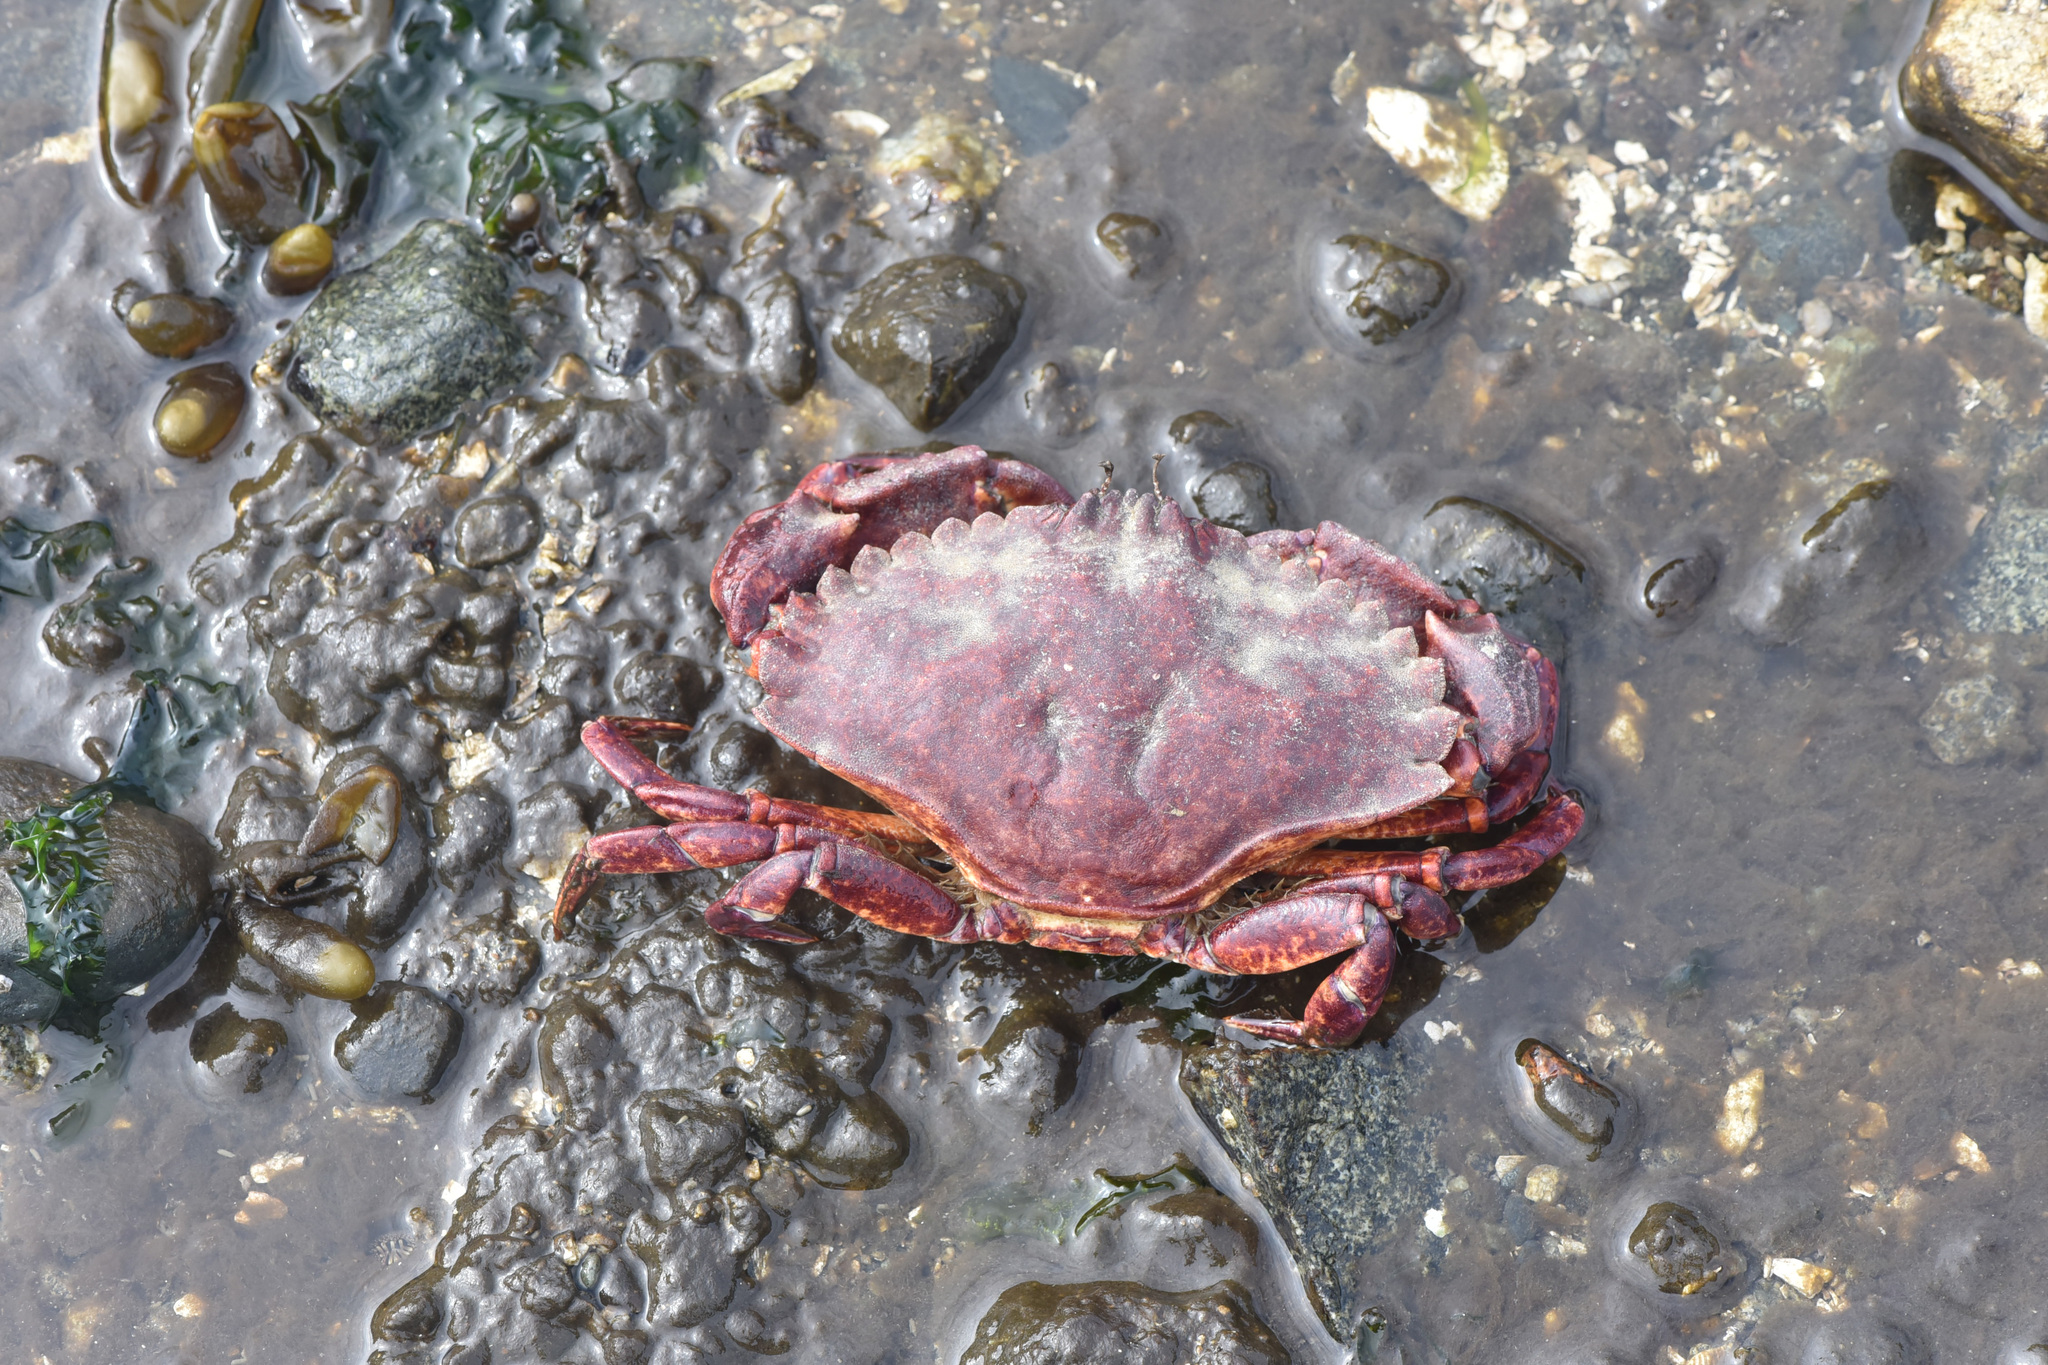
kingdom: Animalia
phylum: Arthropoda
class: Malacostraca
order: Decapoda
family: Cancridae
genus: Cancer
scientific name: Cancer productus
